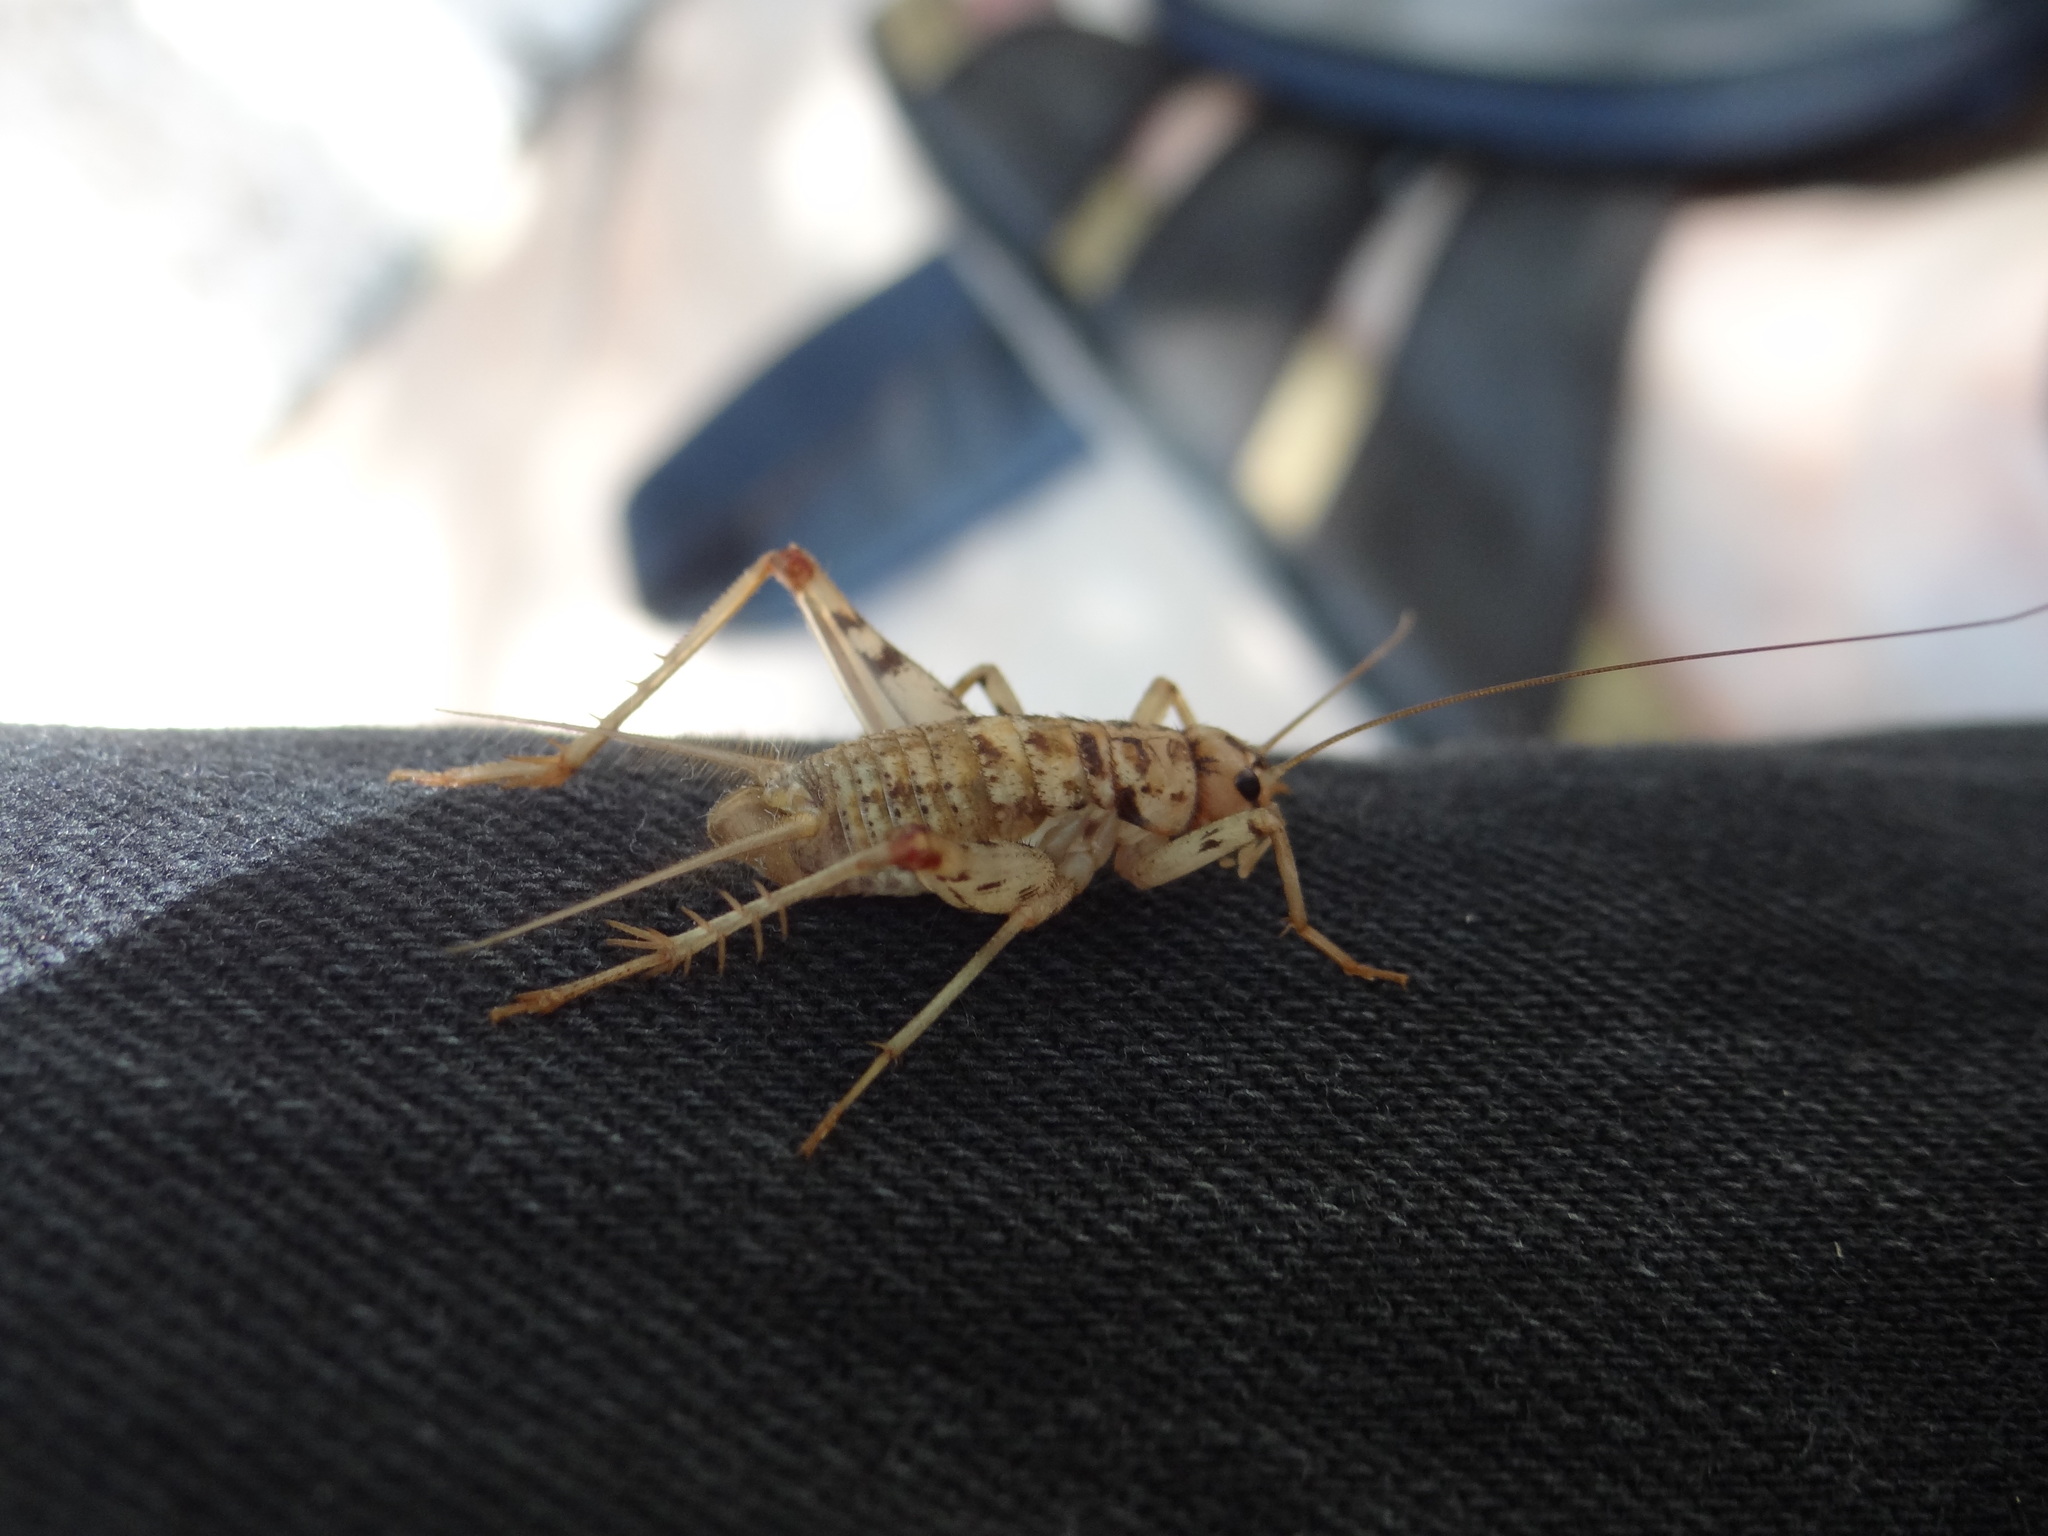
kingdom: Animalia
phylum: Arthropoda
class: Insecta
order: Orthoptera
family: Gryllidae
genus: Gryllomorpha
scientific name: Gryllomorpha dalmatina
